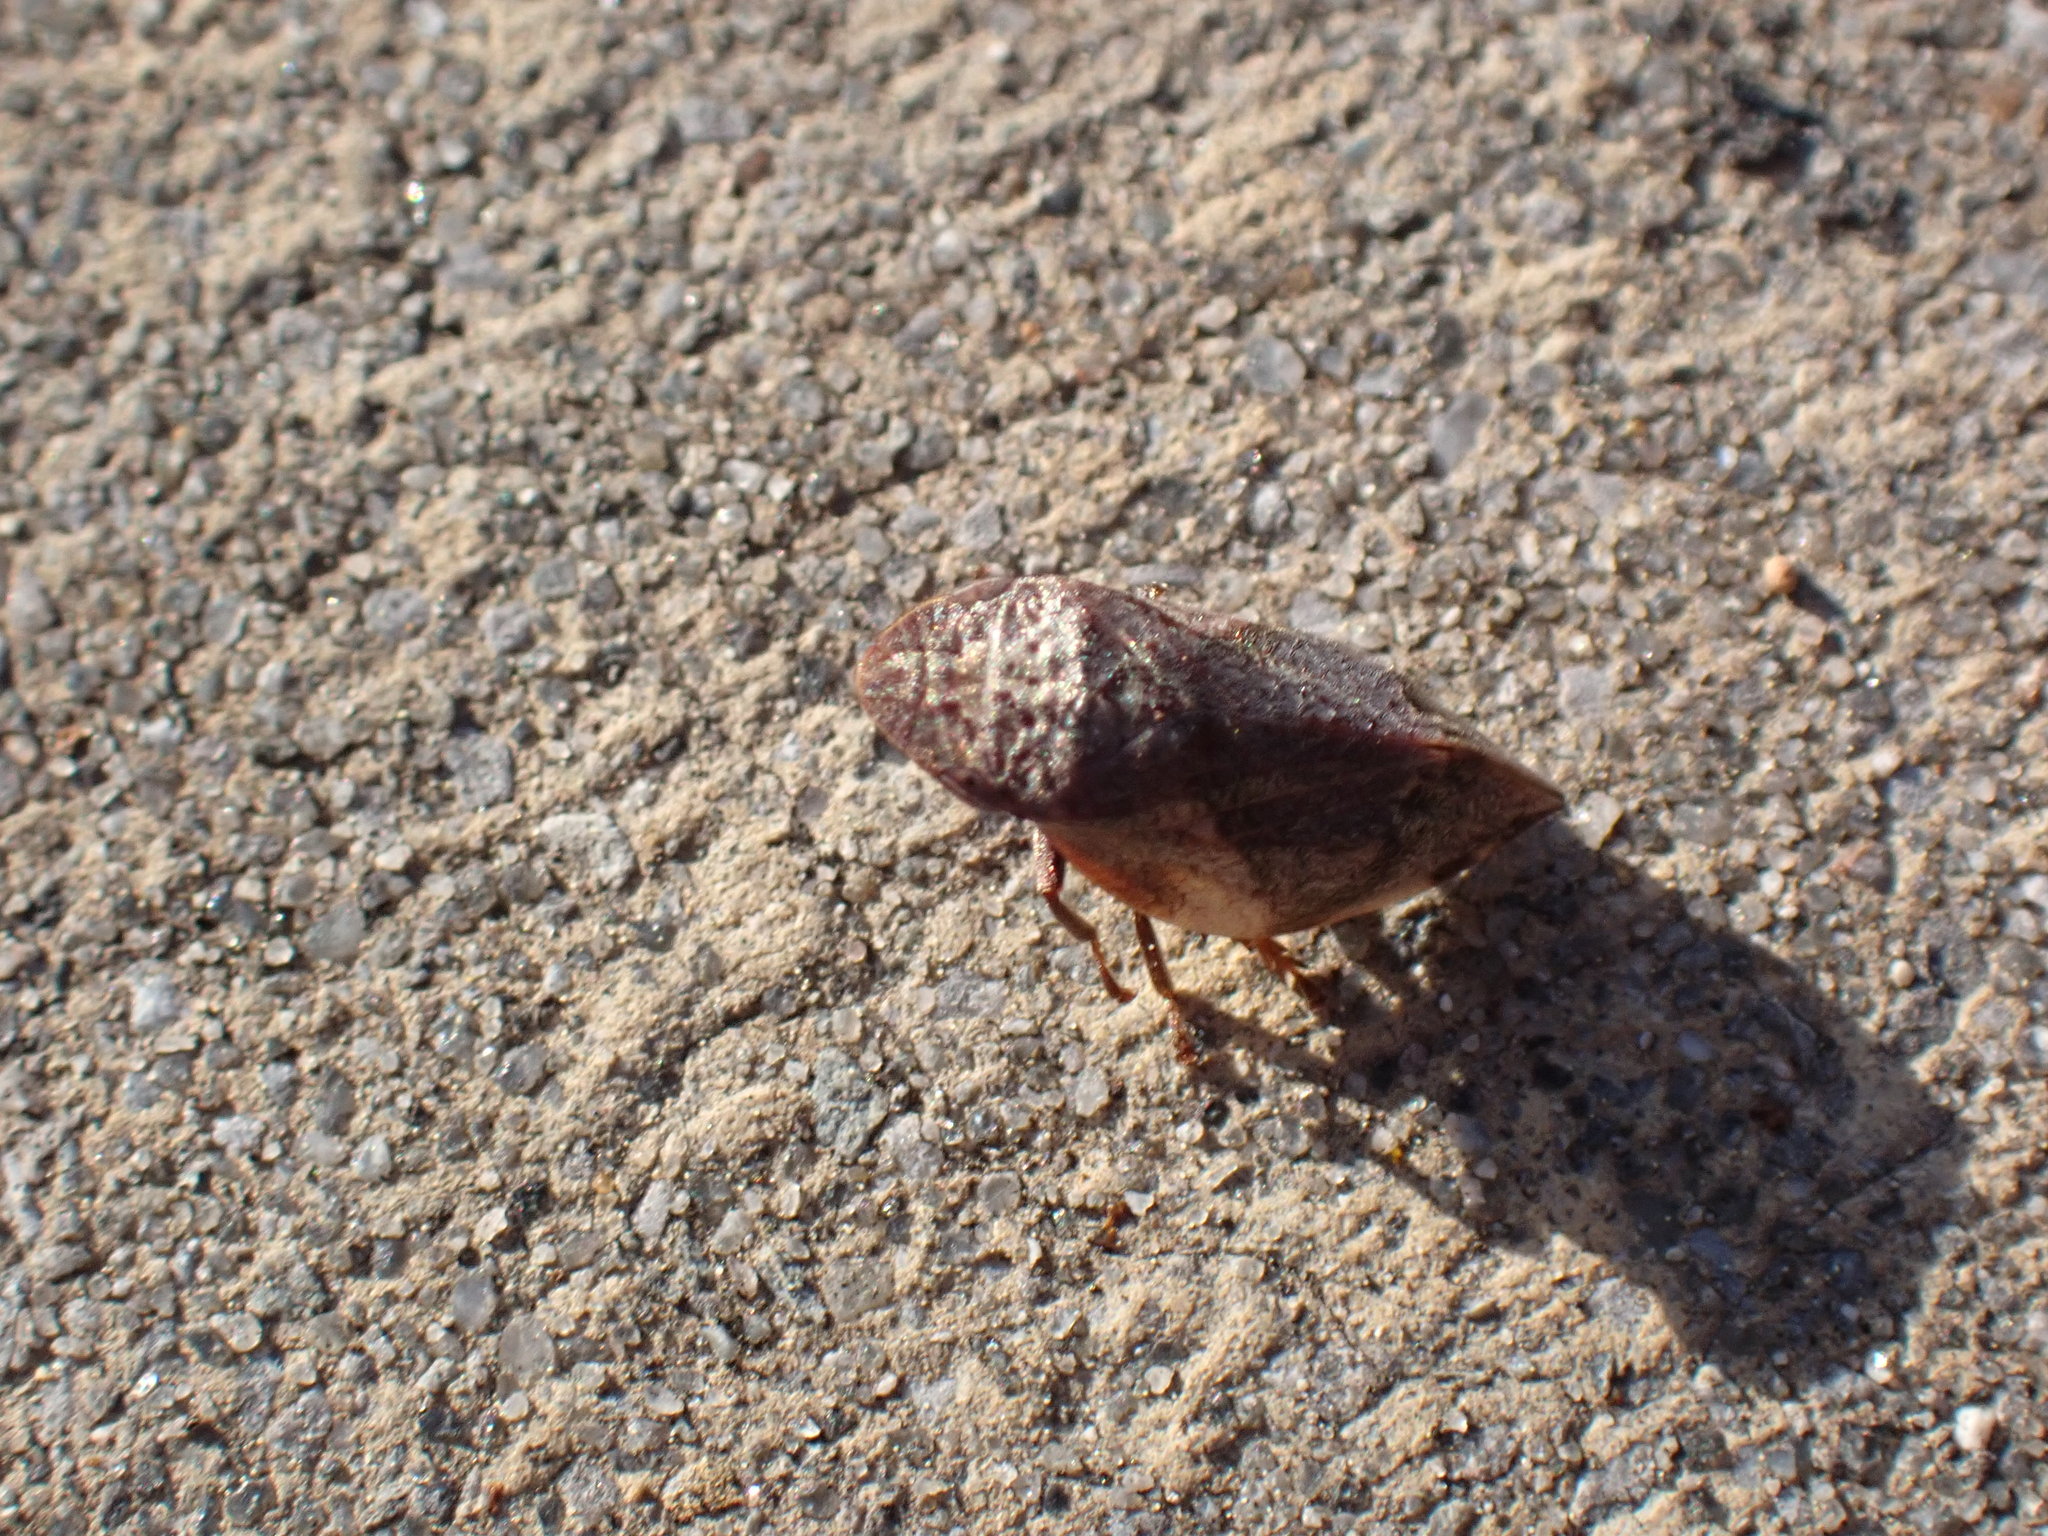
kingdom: Animalia
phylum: Arthropoda
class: Insecta
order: Hemiptera
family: Aphrophoridae
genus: Lepyronia
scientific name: Lepyronia quadrangularis
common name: Diamond-backed spittlebug
